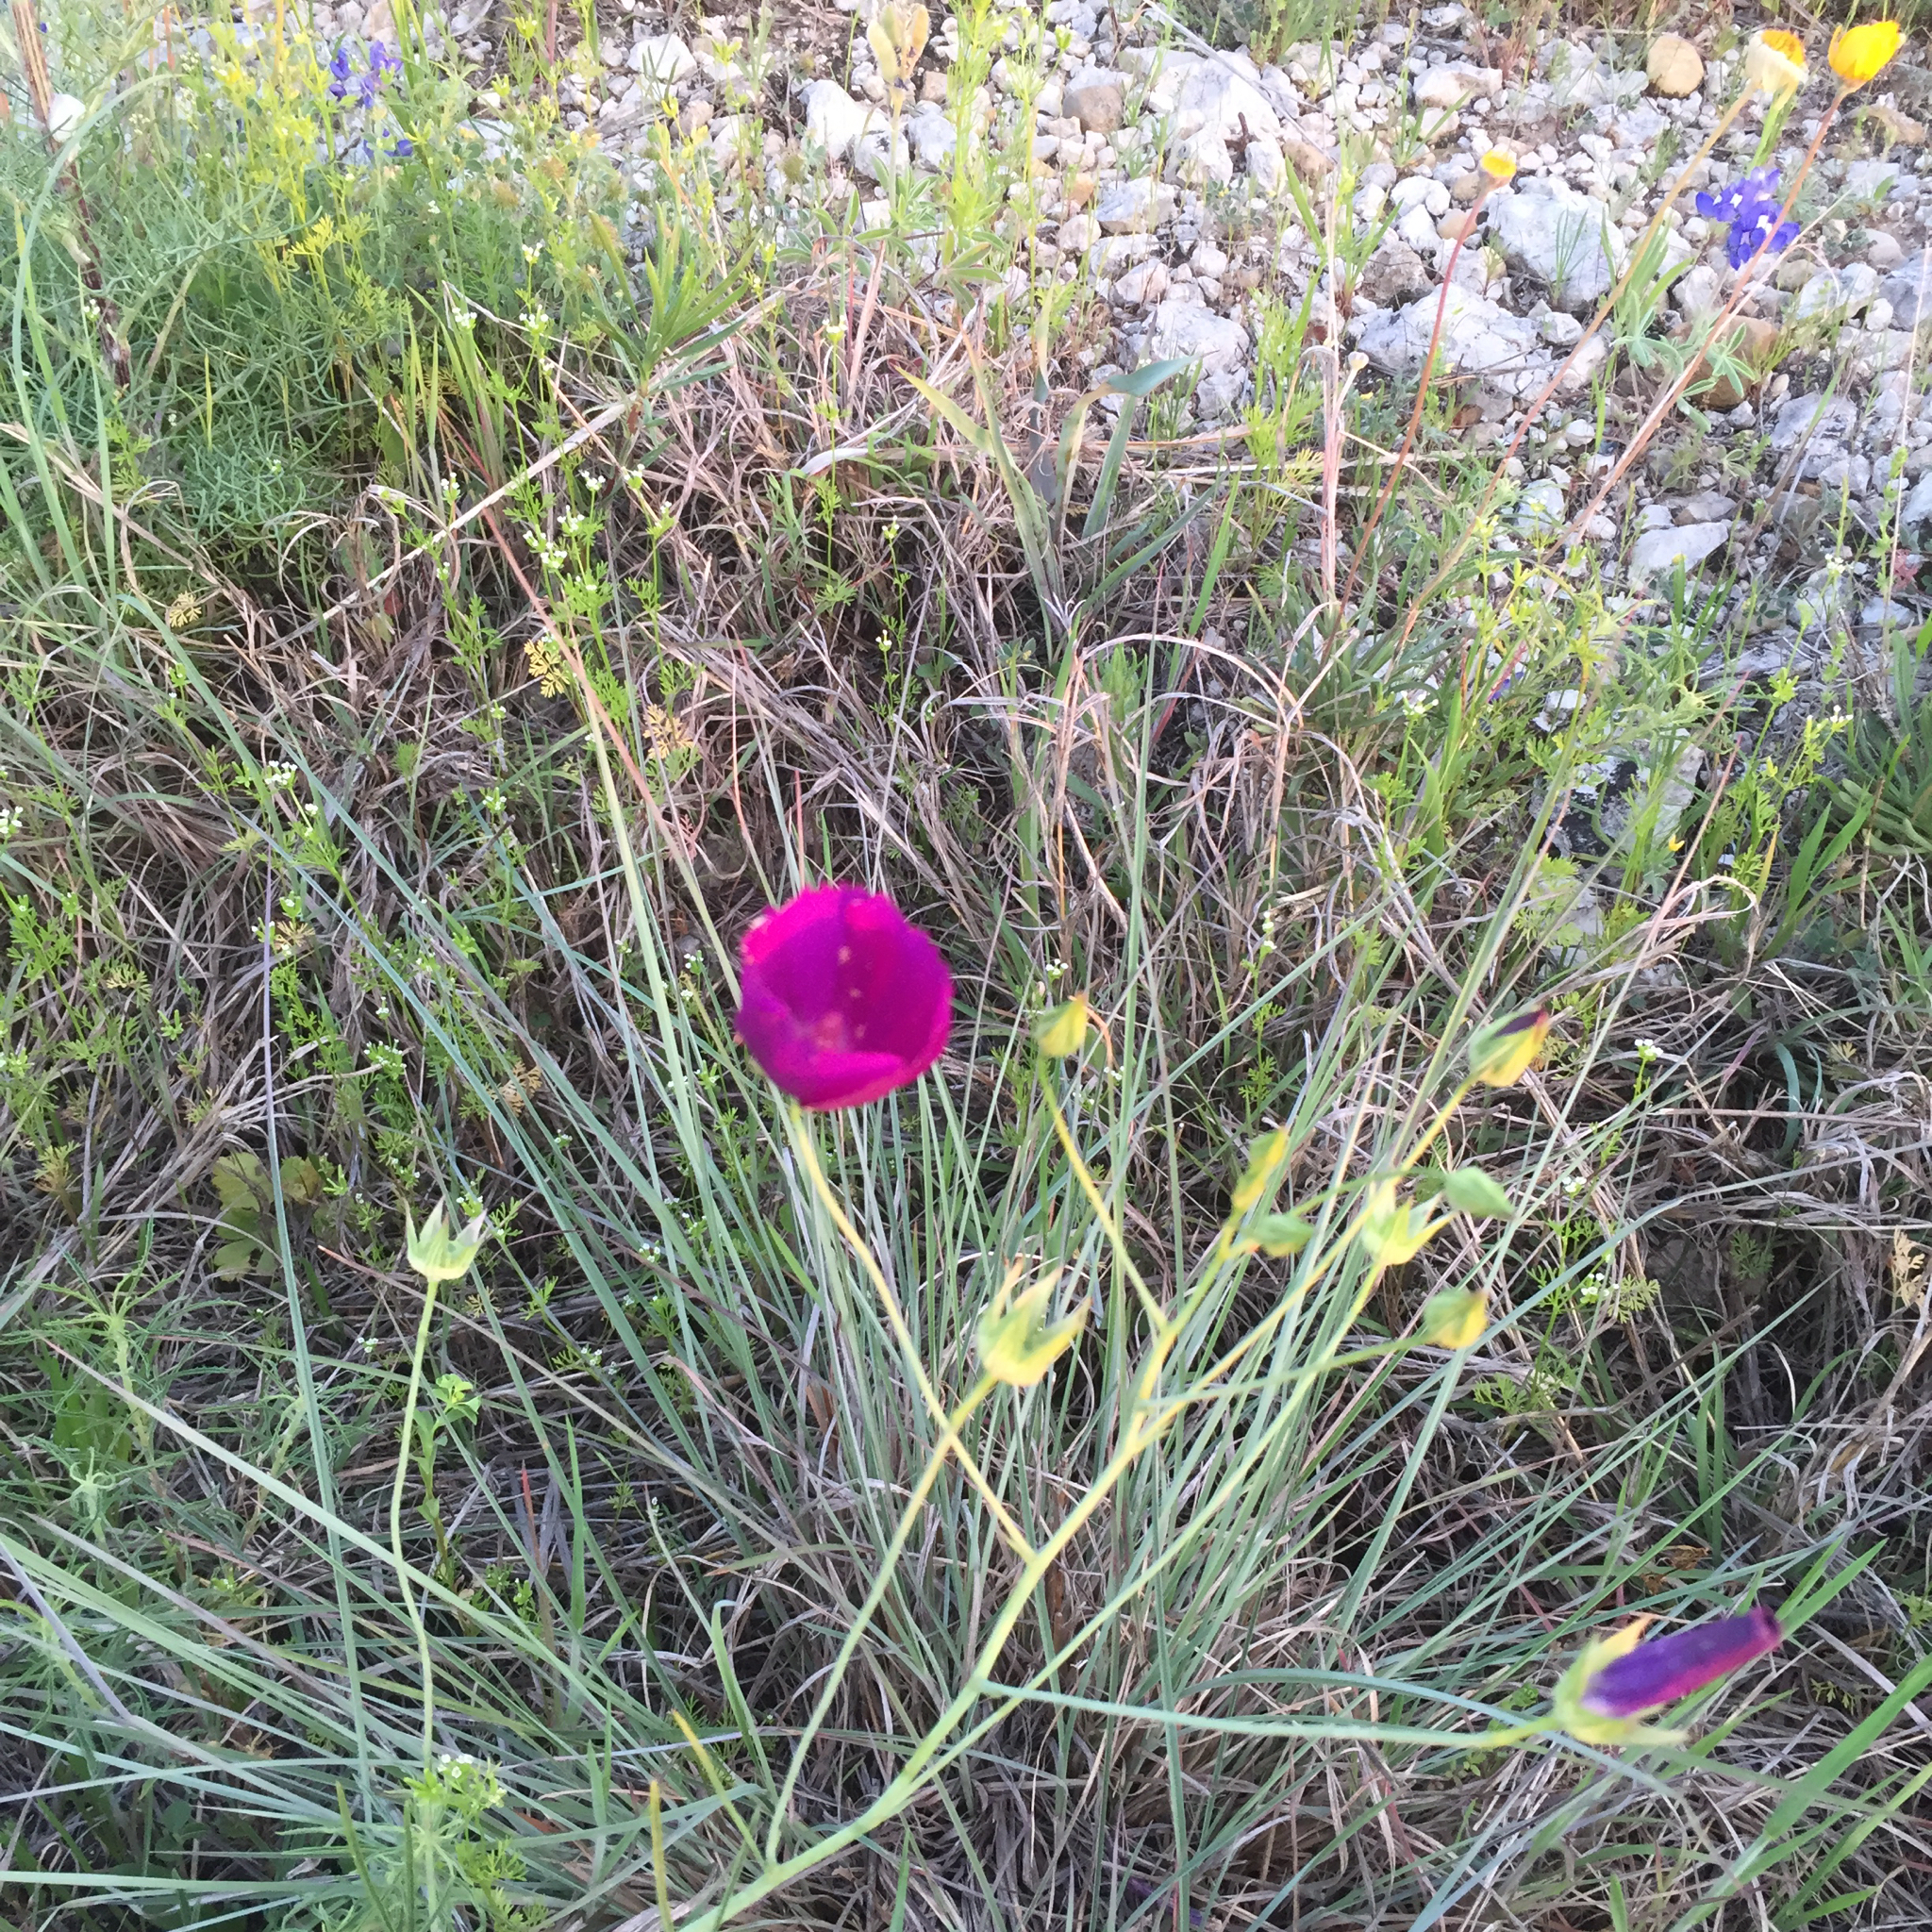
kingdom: Plantae
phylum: Tracheophyta
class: Magnoliopsida
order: Malvales
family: Malvaceae
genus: Callirhoe
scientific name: Callirhoe pedata
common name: Finger poppy-mallow
